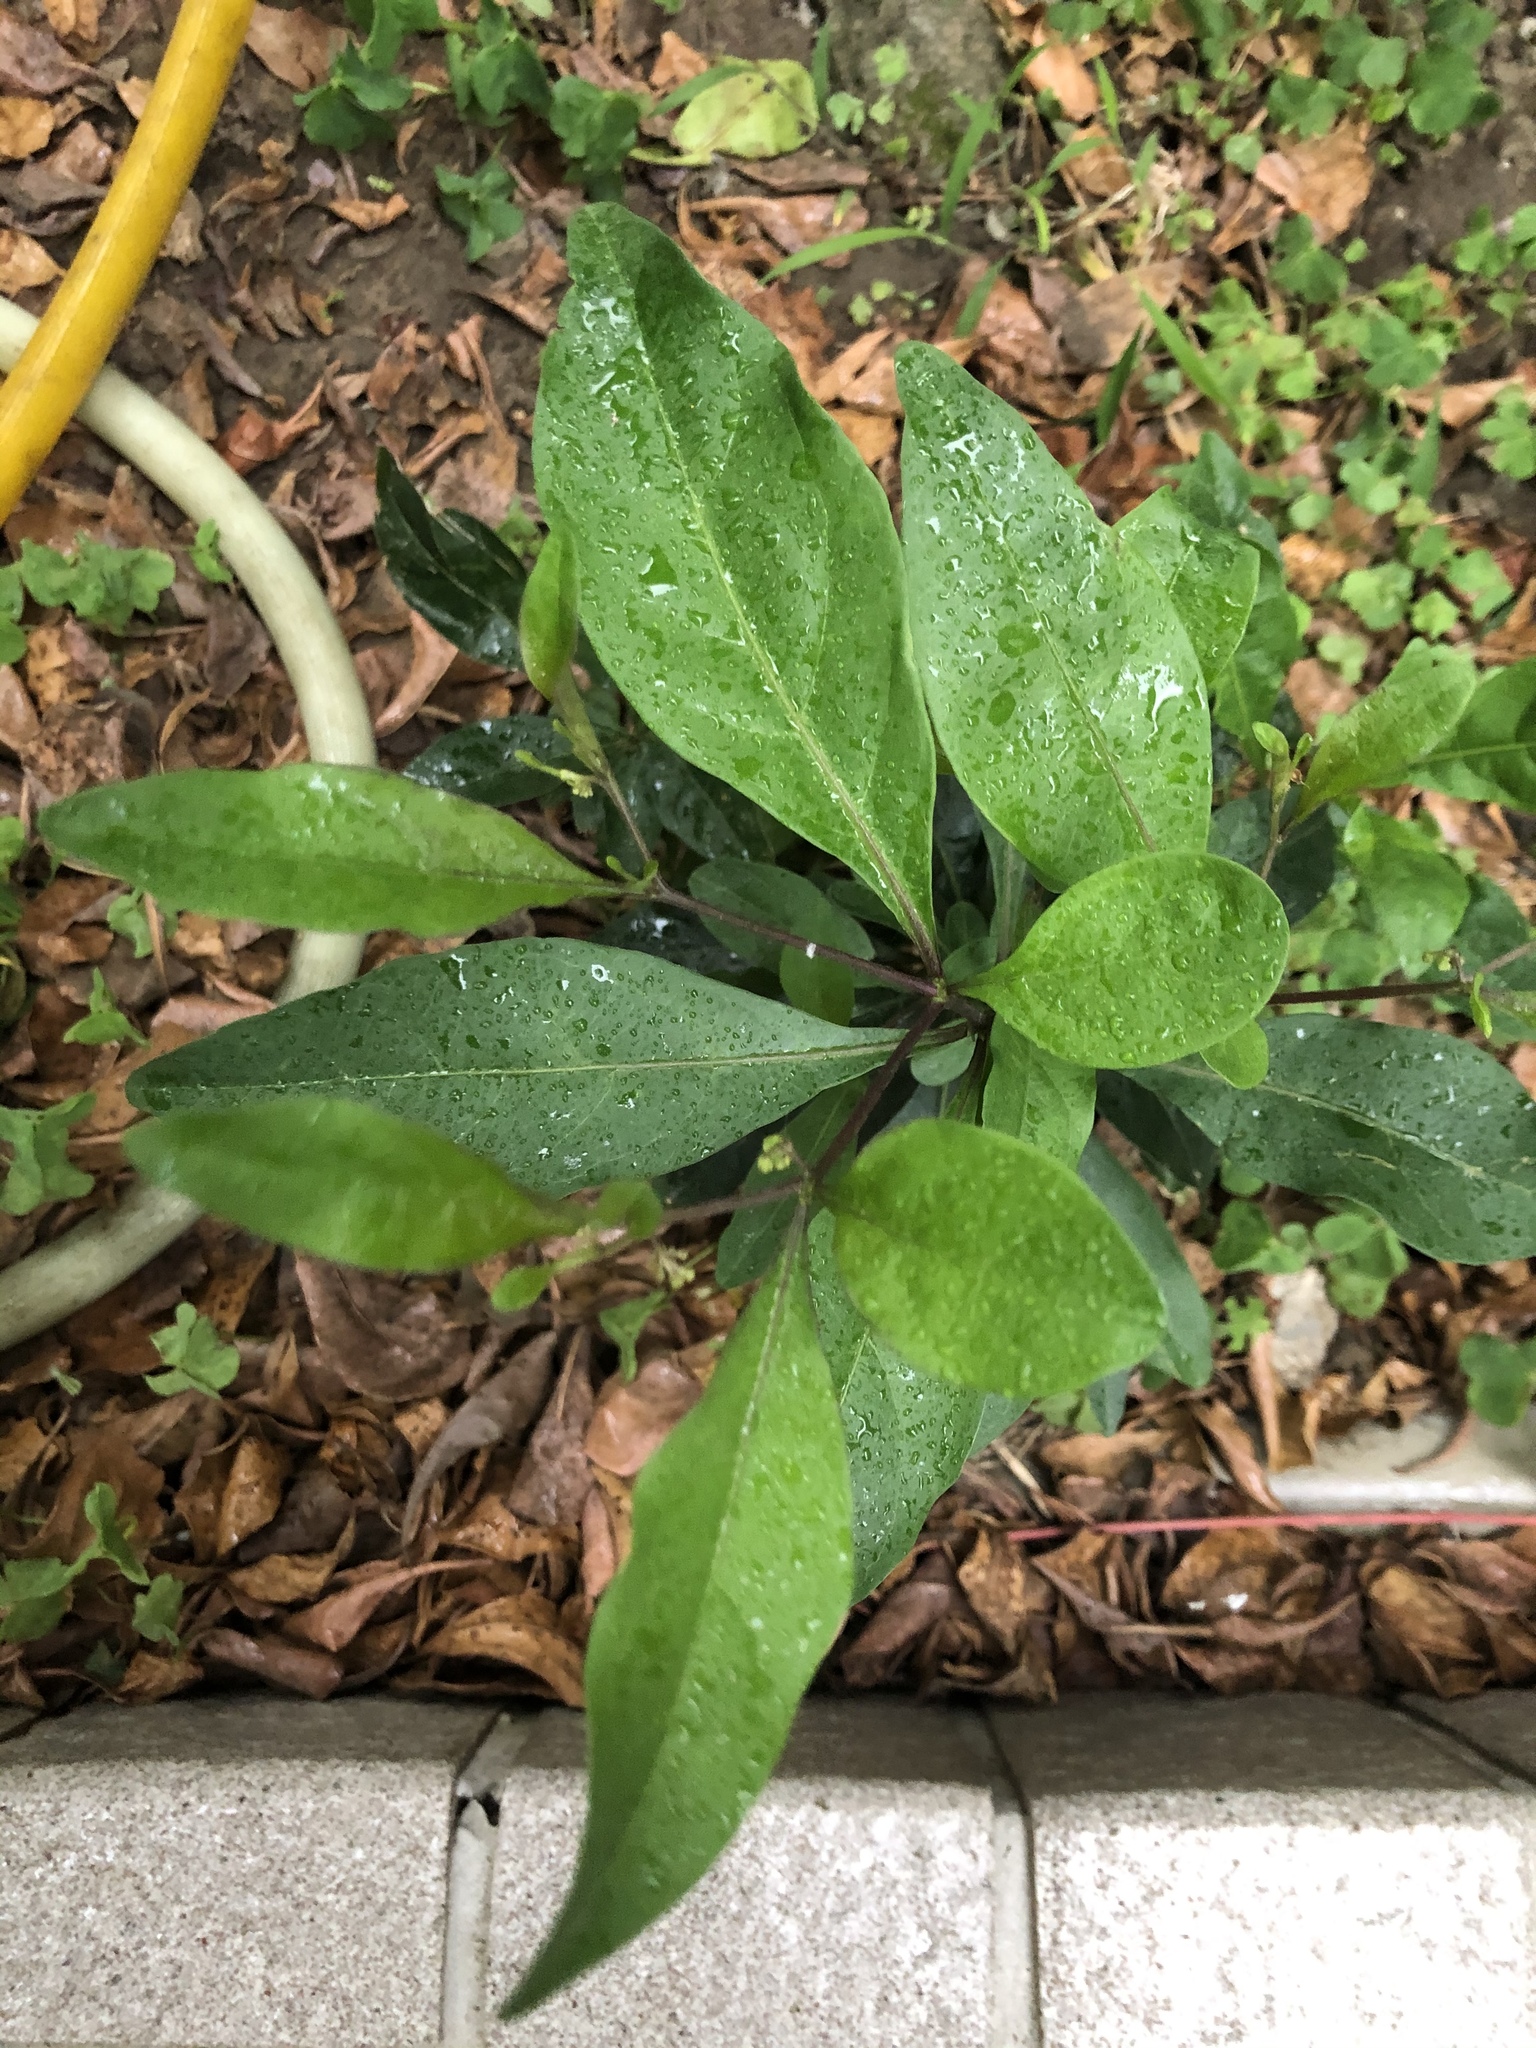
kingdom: Plantae
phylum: Tracheophyta
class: Magnoliopsida
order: Solanales
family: Solanaceae
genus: Solanum
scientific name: Solanum diphyllum
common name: Twoleaf nightshade
